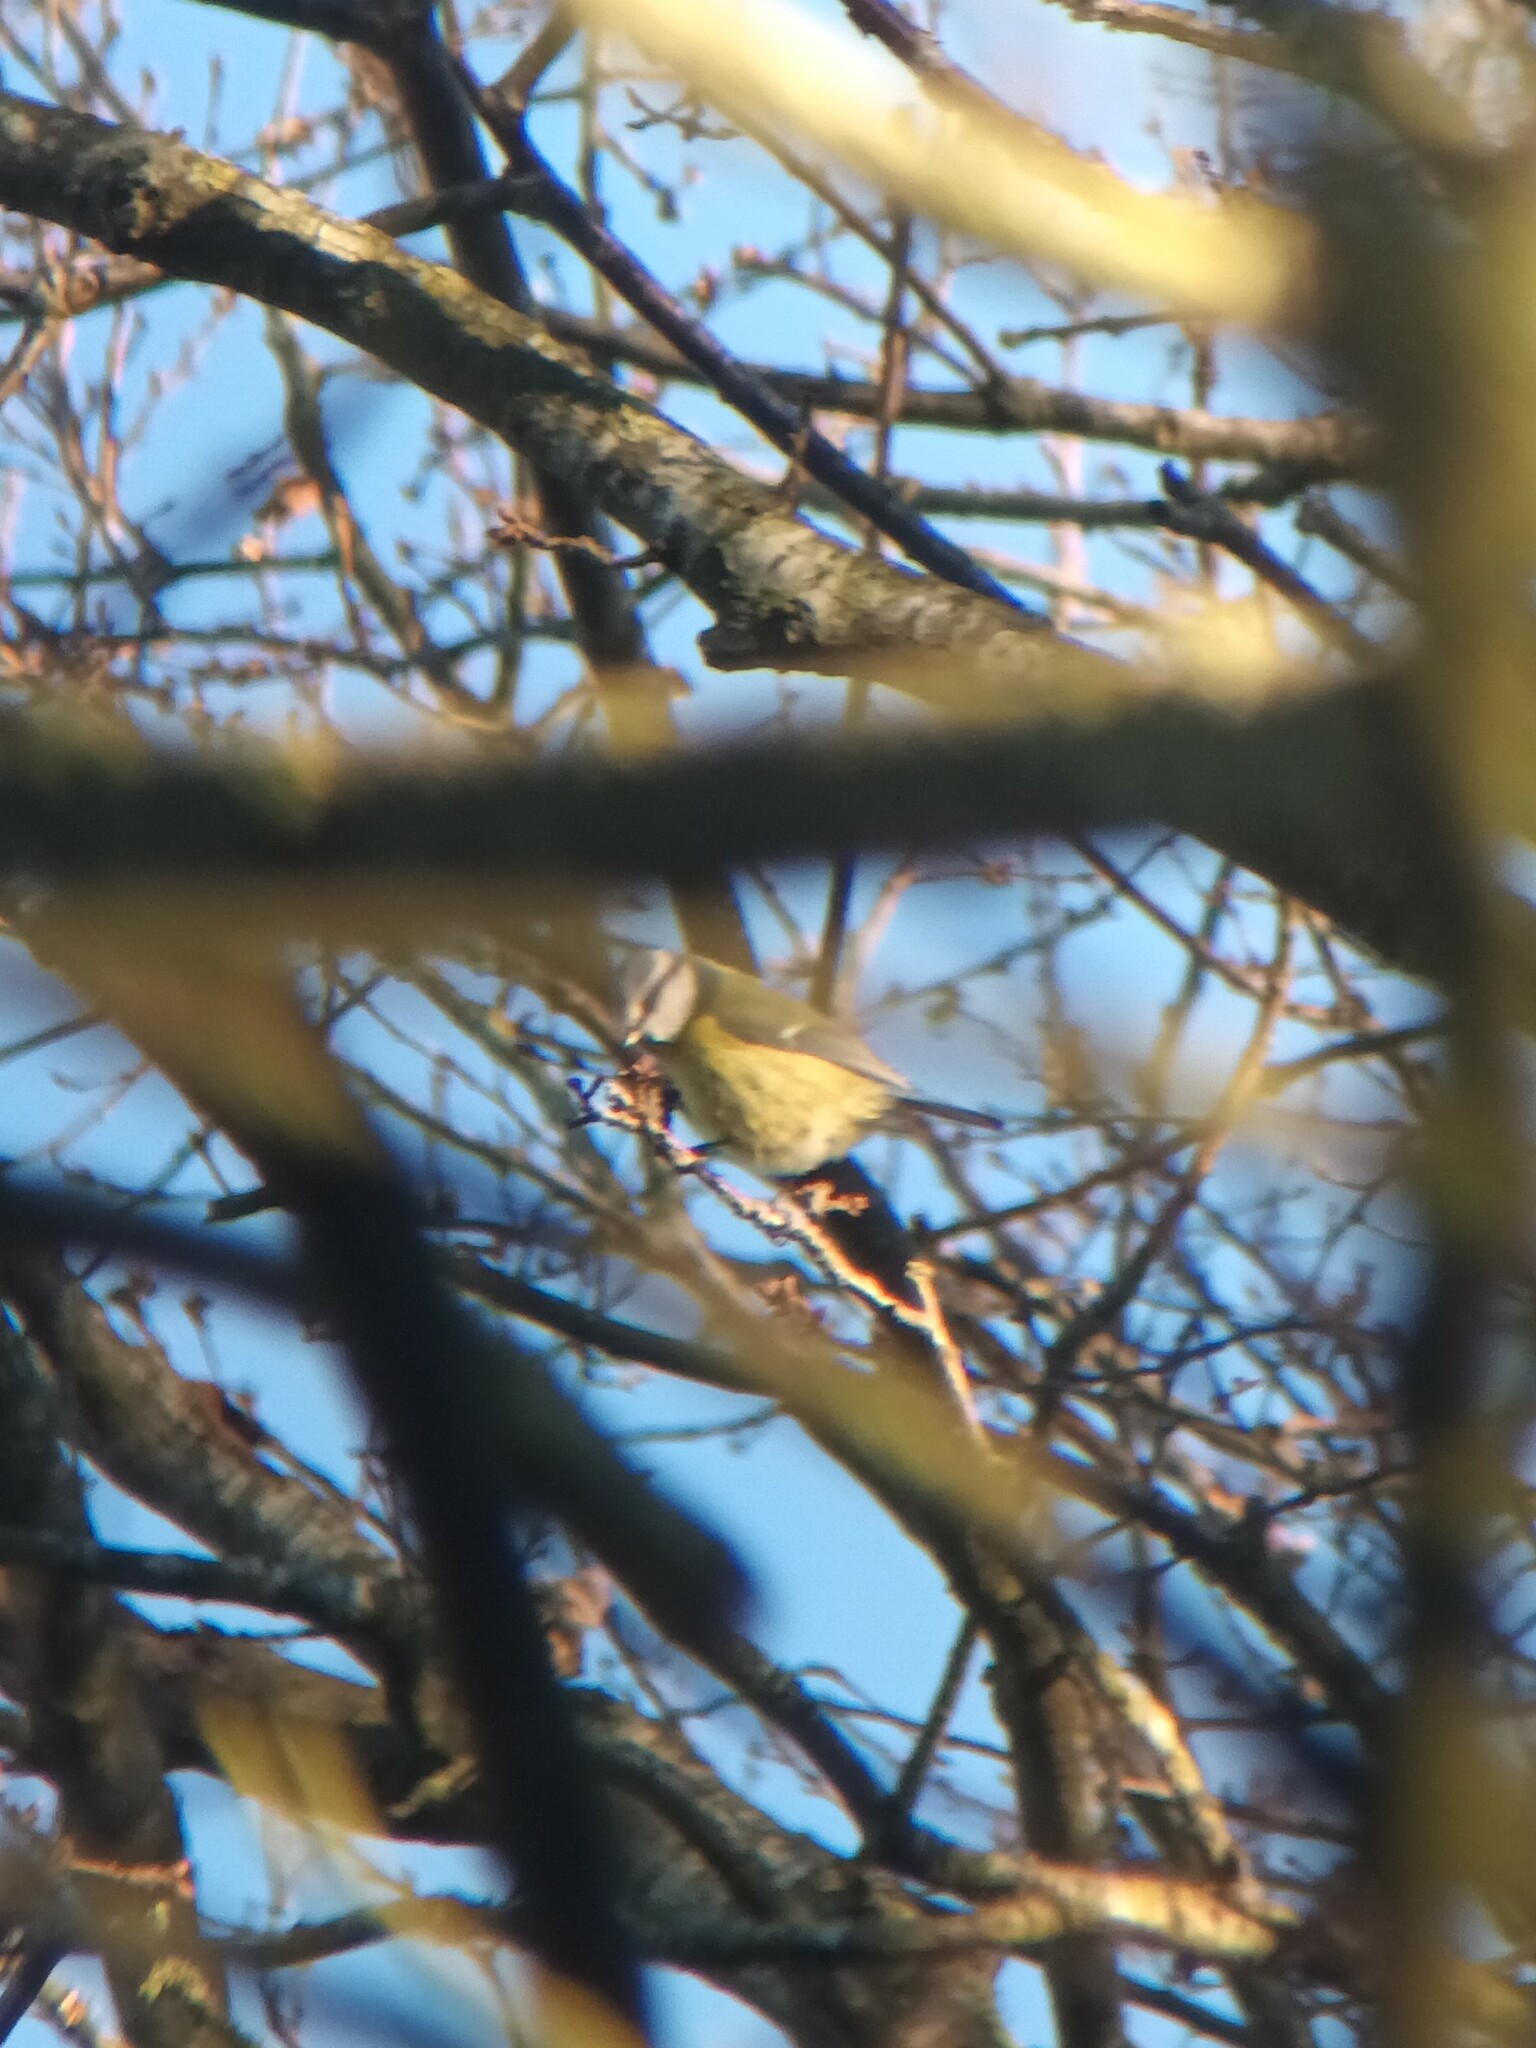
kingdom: Animalia
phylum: Chordata
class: Aves
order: Passeriformes
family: Paridae
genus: Cyanistes
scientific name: Cyanistes caeruleus
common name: Eurasian blue tit
